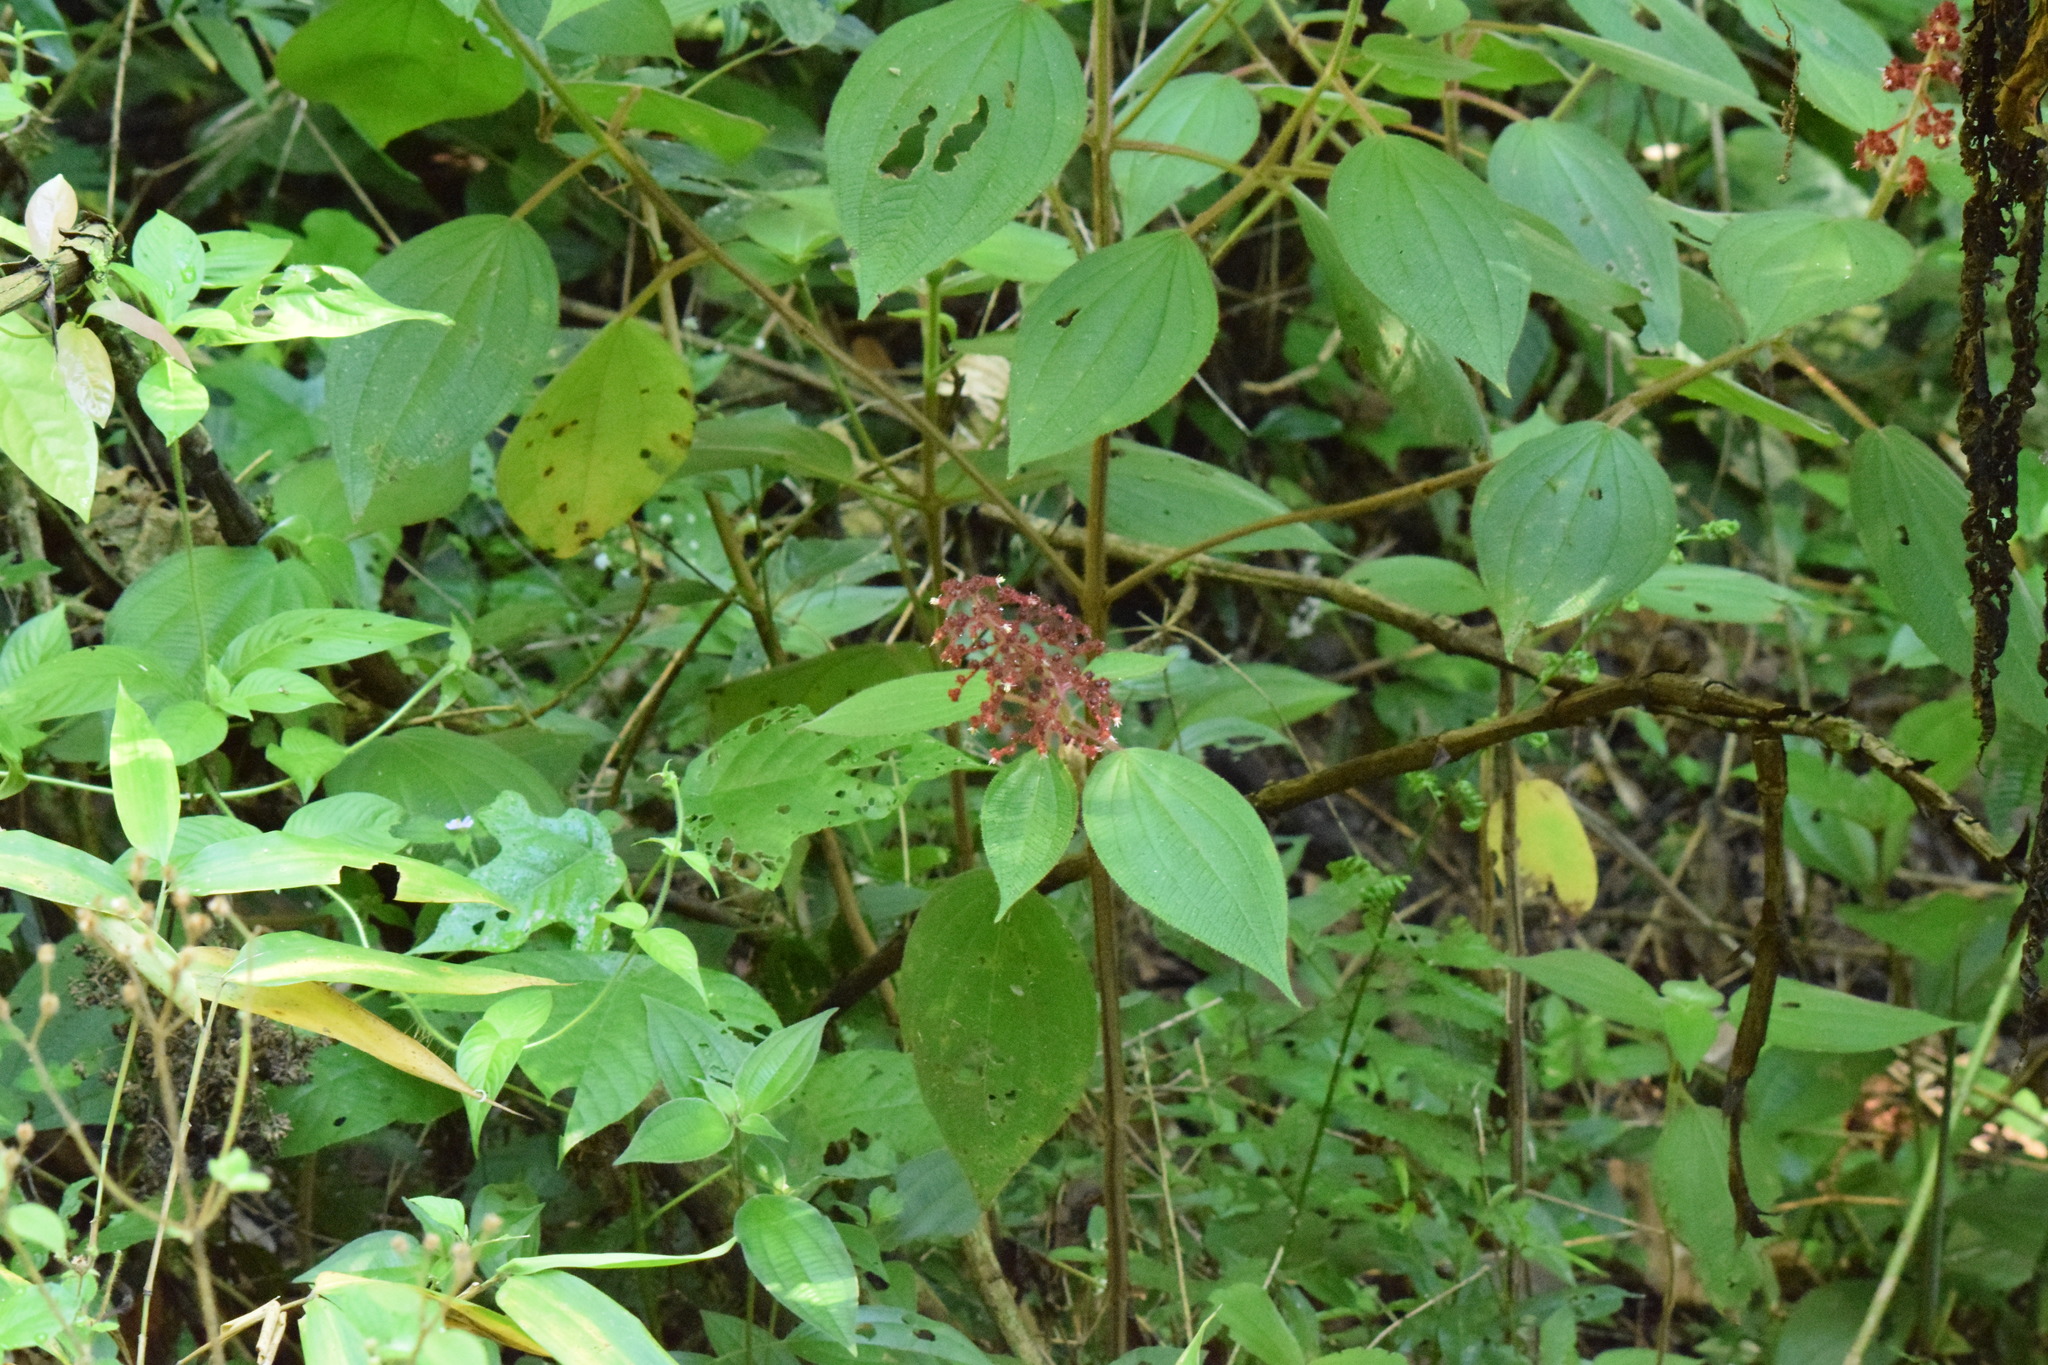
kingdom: Plantae
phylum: Tracheophyta
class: Magnoliopsida
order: Myrtales
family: Melastomataceae
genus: Miconia
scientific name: Miconia reversa
